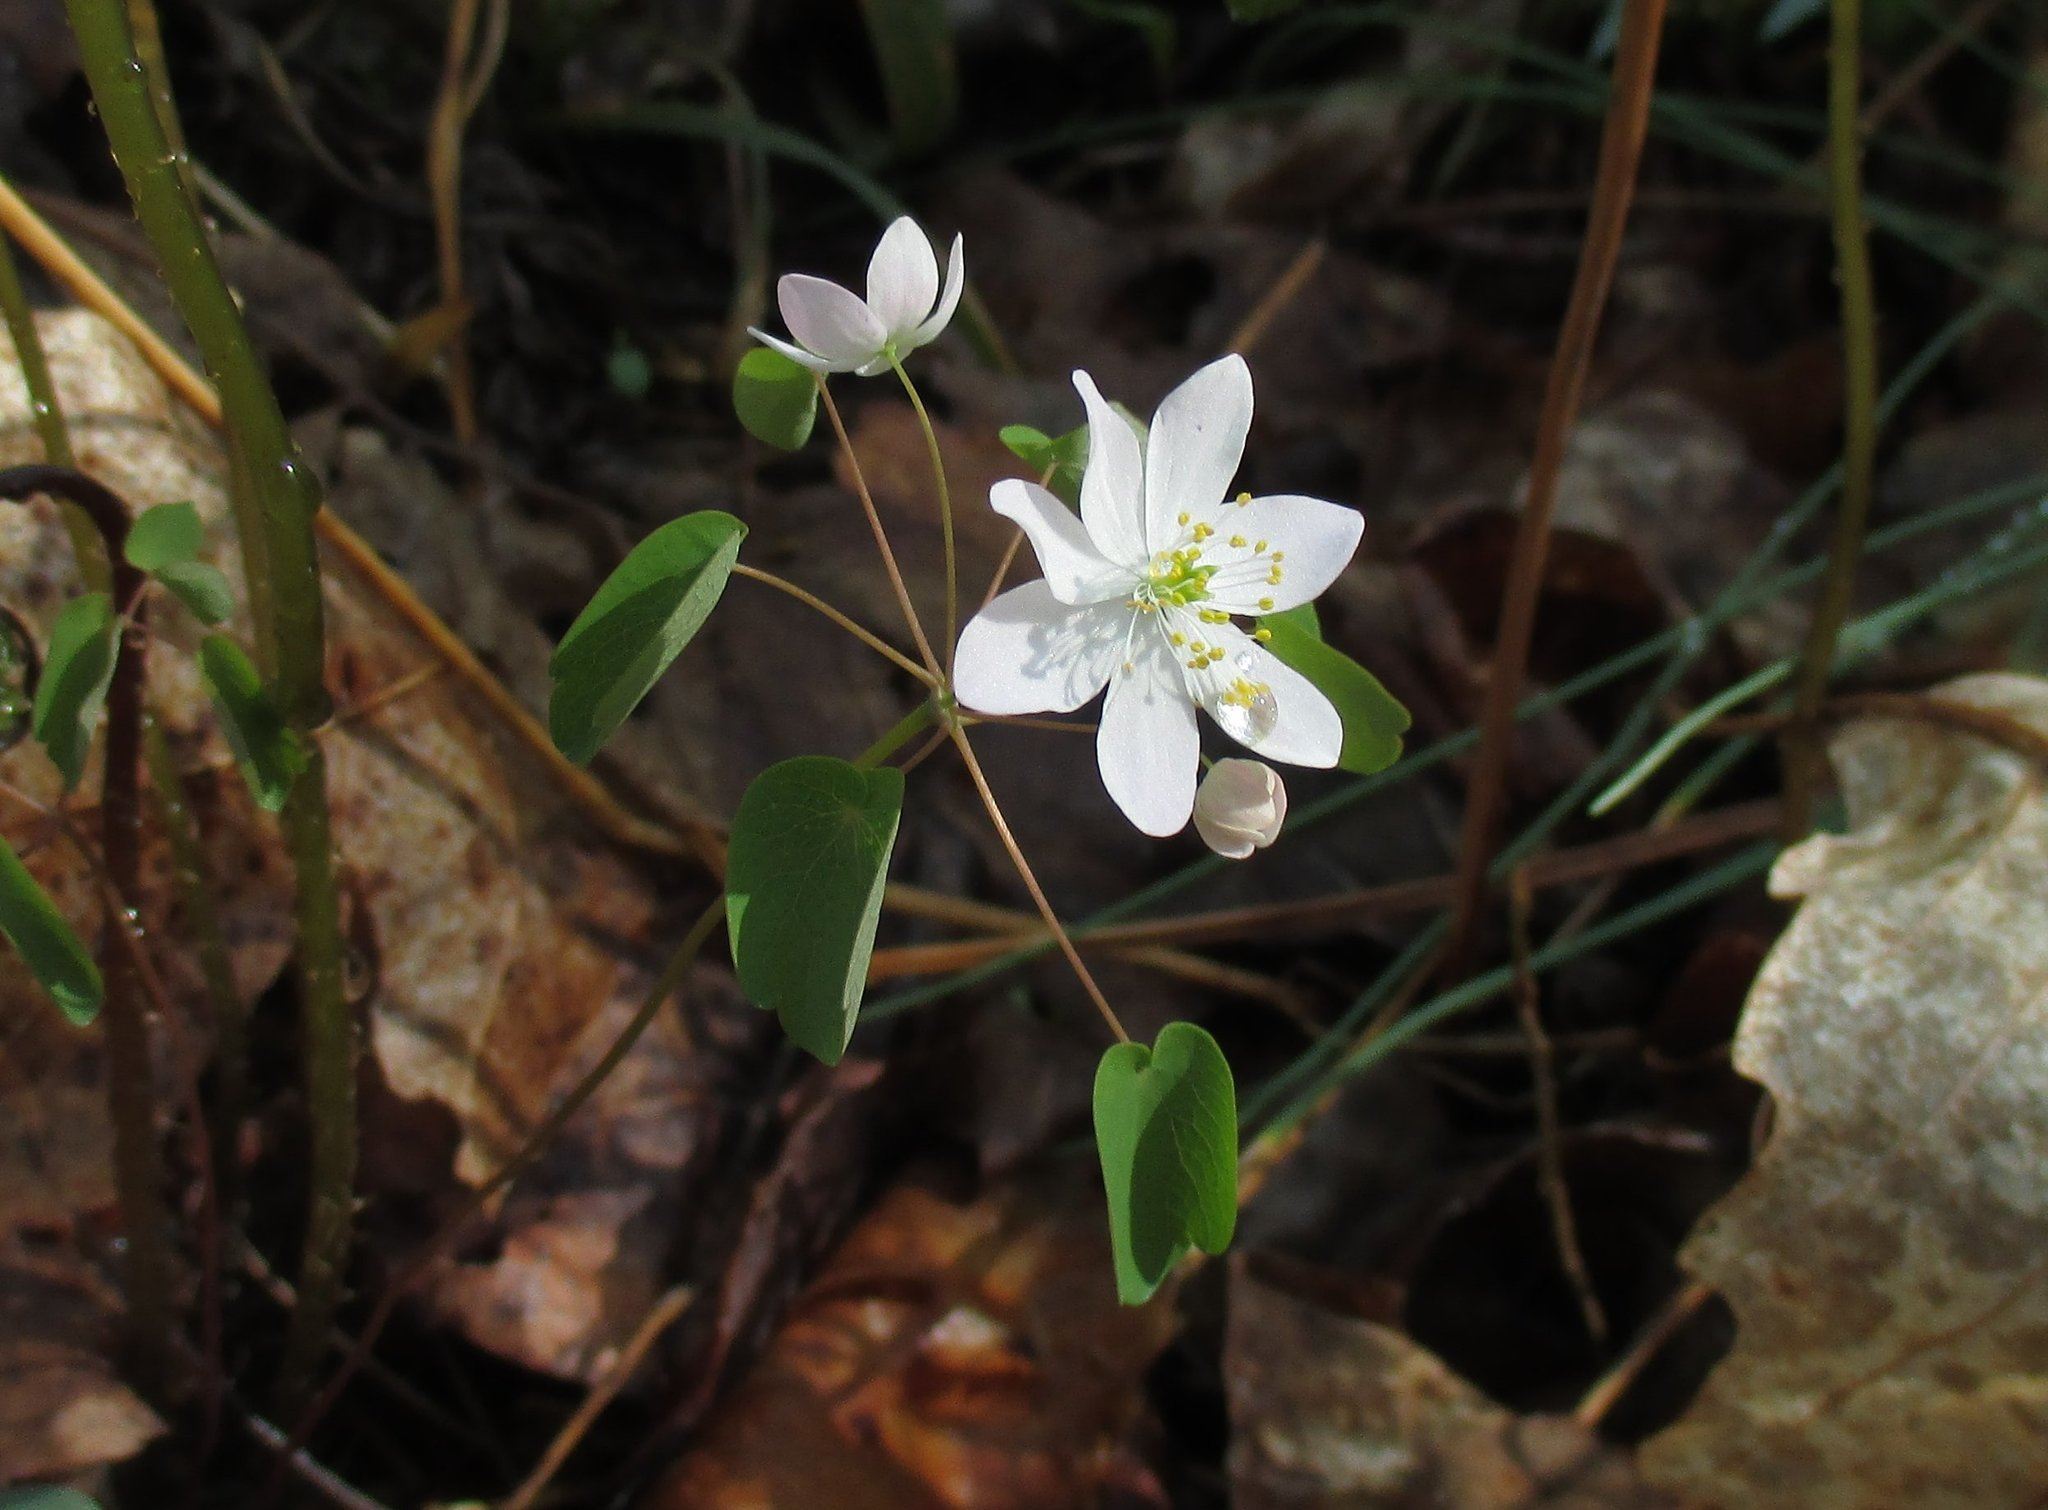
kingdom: Plantae
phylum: Tracheophyta
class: Magnoliopsida
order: Ranunculales
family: Ranunculaceae
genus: Thalictrum
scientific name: Thalictrum thalictroides
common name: Rue-anemone
